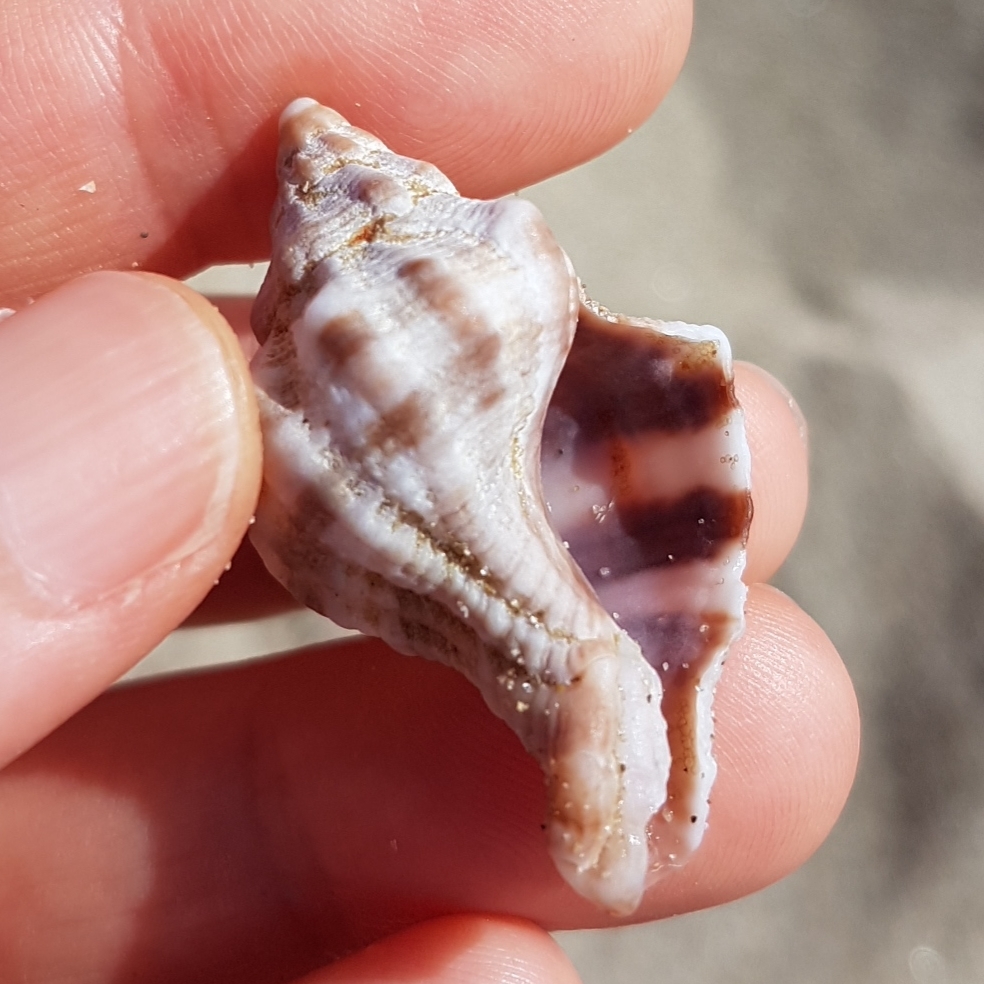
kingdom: Animalia
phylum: Mollusca
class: Gastropoda
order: Neogastropoda
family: Muricidae
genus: Hexaplex
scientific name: Hexaplex trunculus
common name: Banded dye-murex
